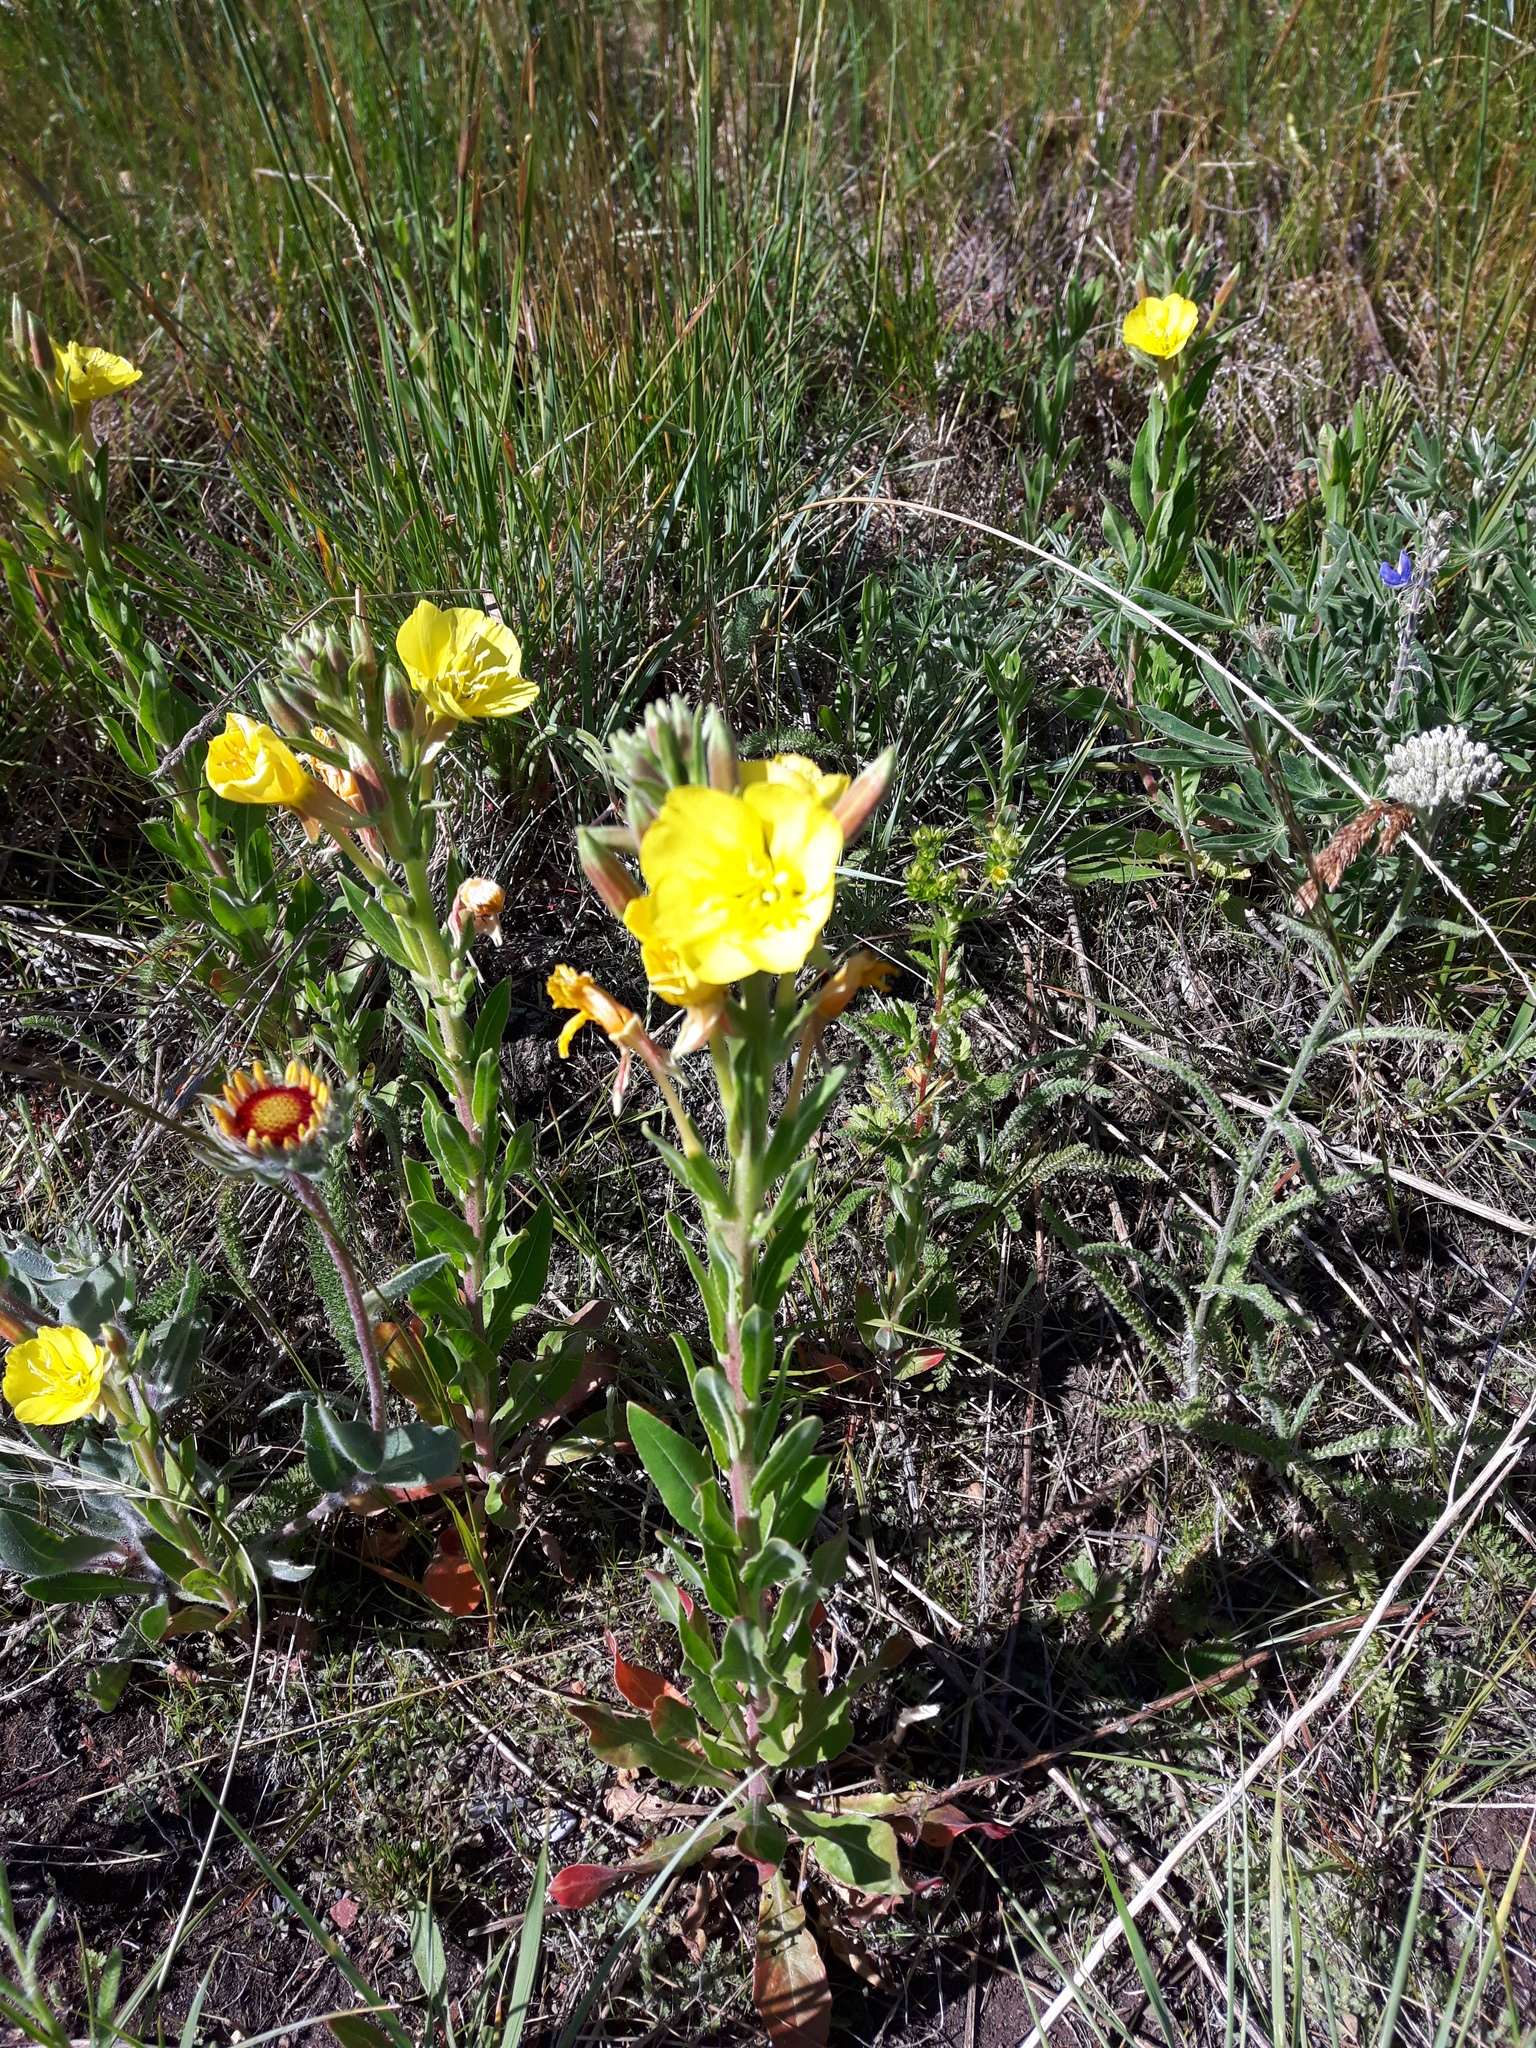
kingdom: Plantae
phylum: Tracheophyta
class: Magnoliopsida
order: Myrtales
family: Onagraceae
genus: Oenothera
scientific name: Oenothera biennis
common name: Common evening-primrose
